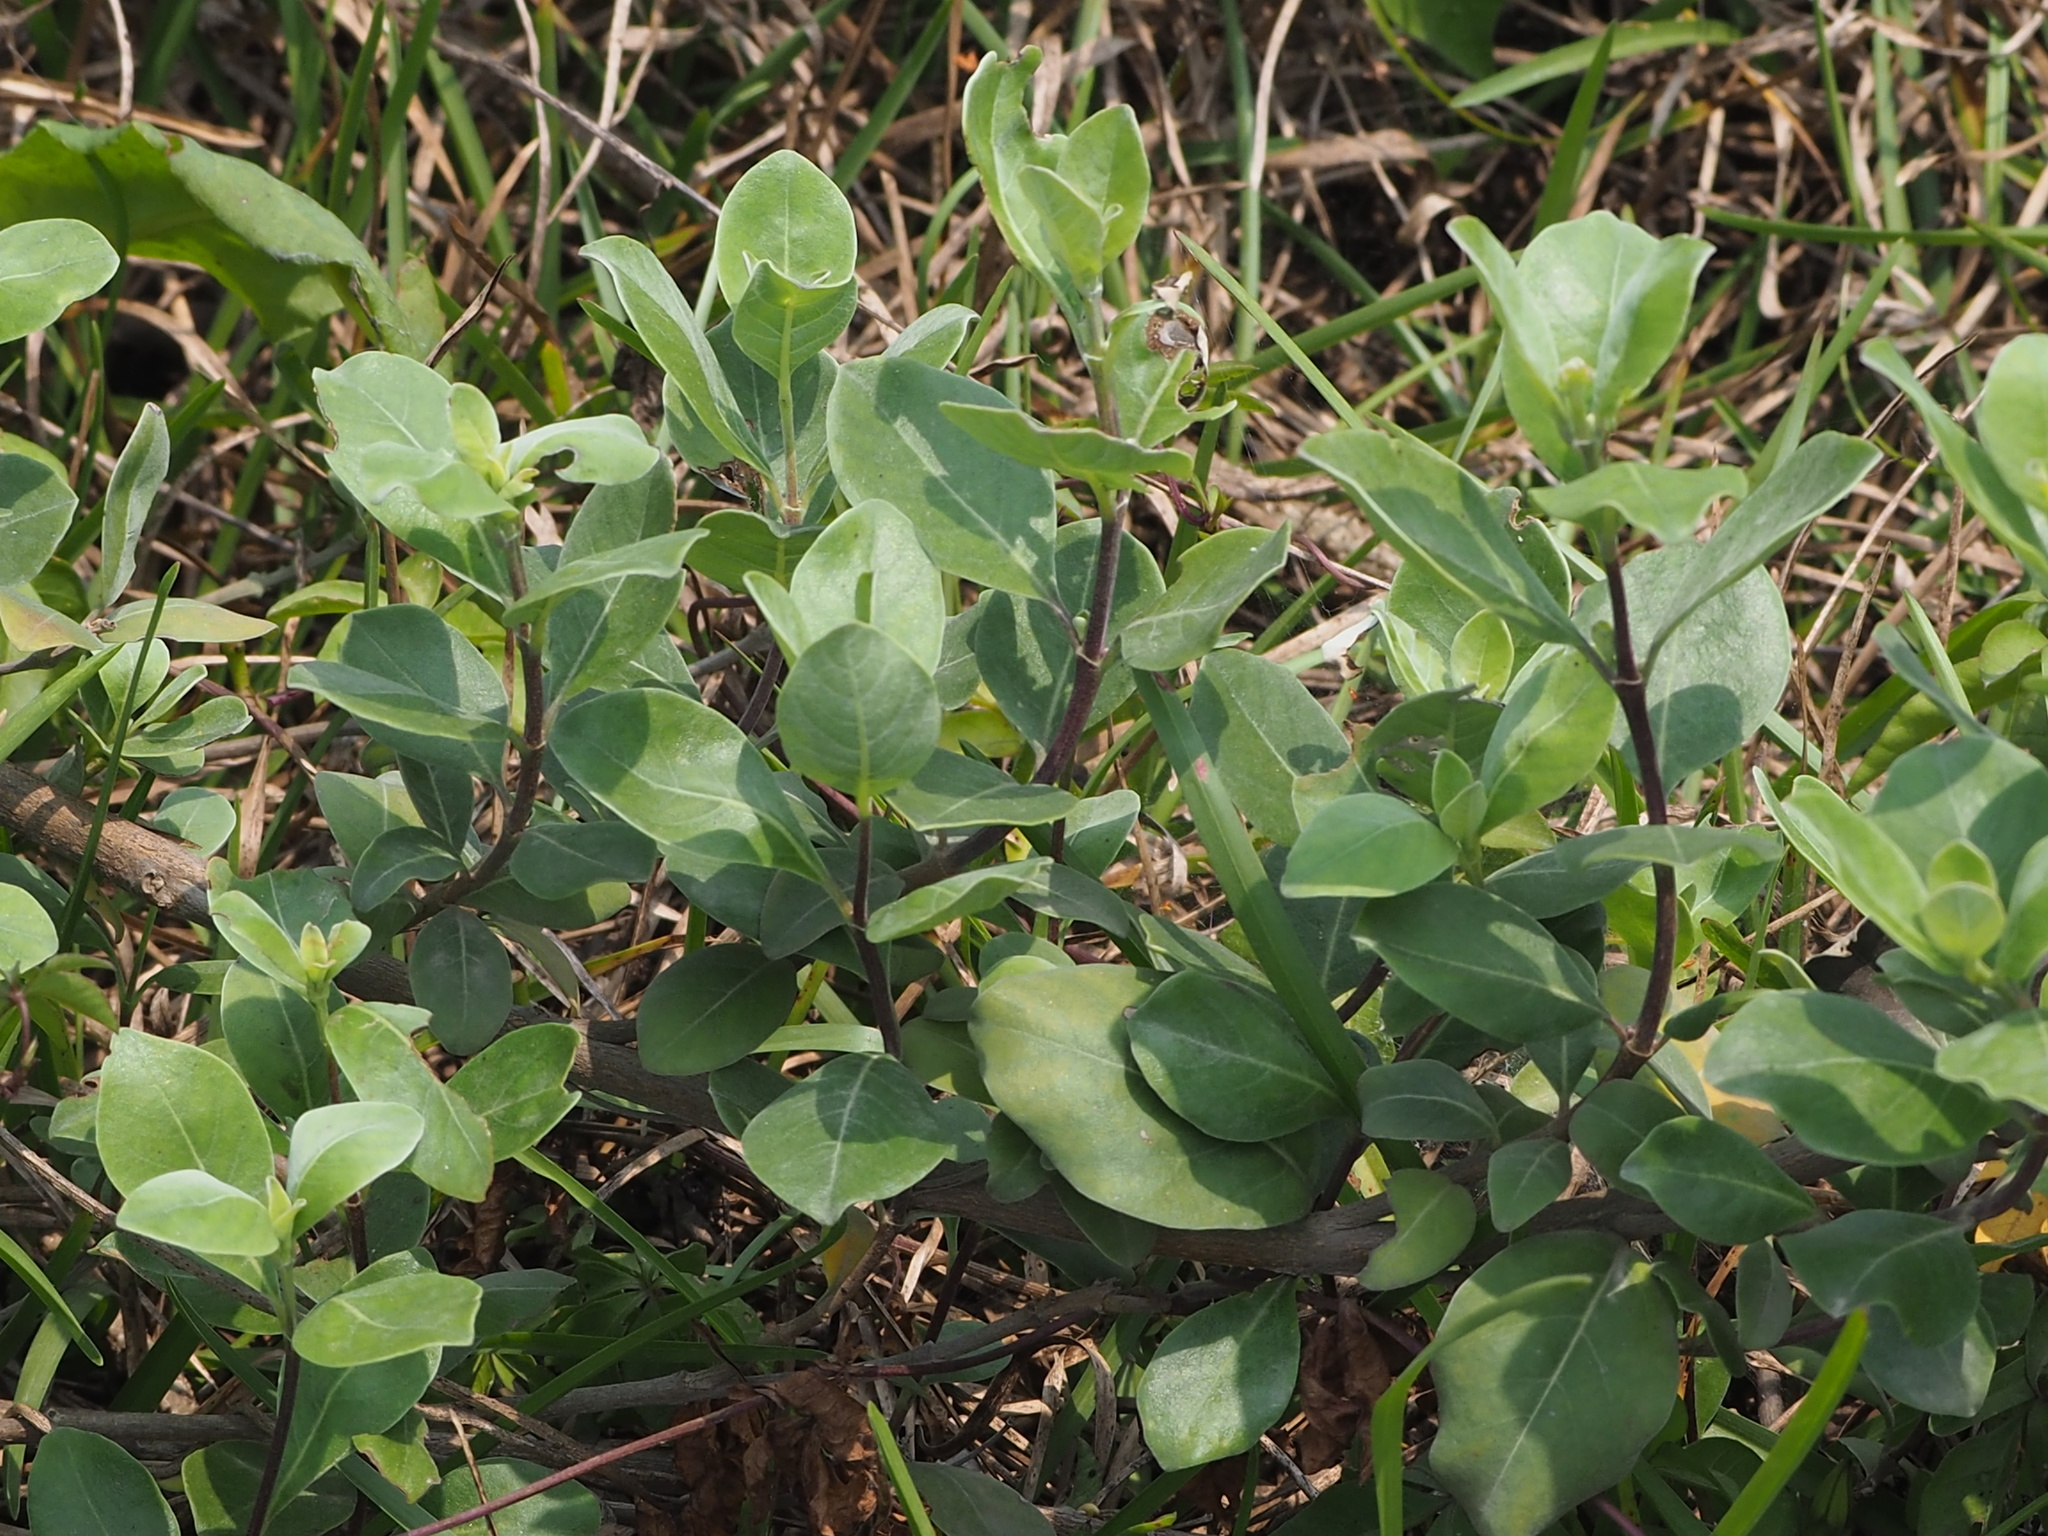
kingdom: Plantae
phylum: Tracheophyta
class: Magnoliopsida
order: Lamiales
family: Lamiaceae
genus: Vitex
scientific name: Vitex rotundifolia
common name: Beach vitex
